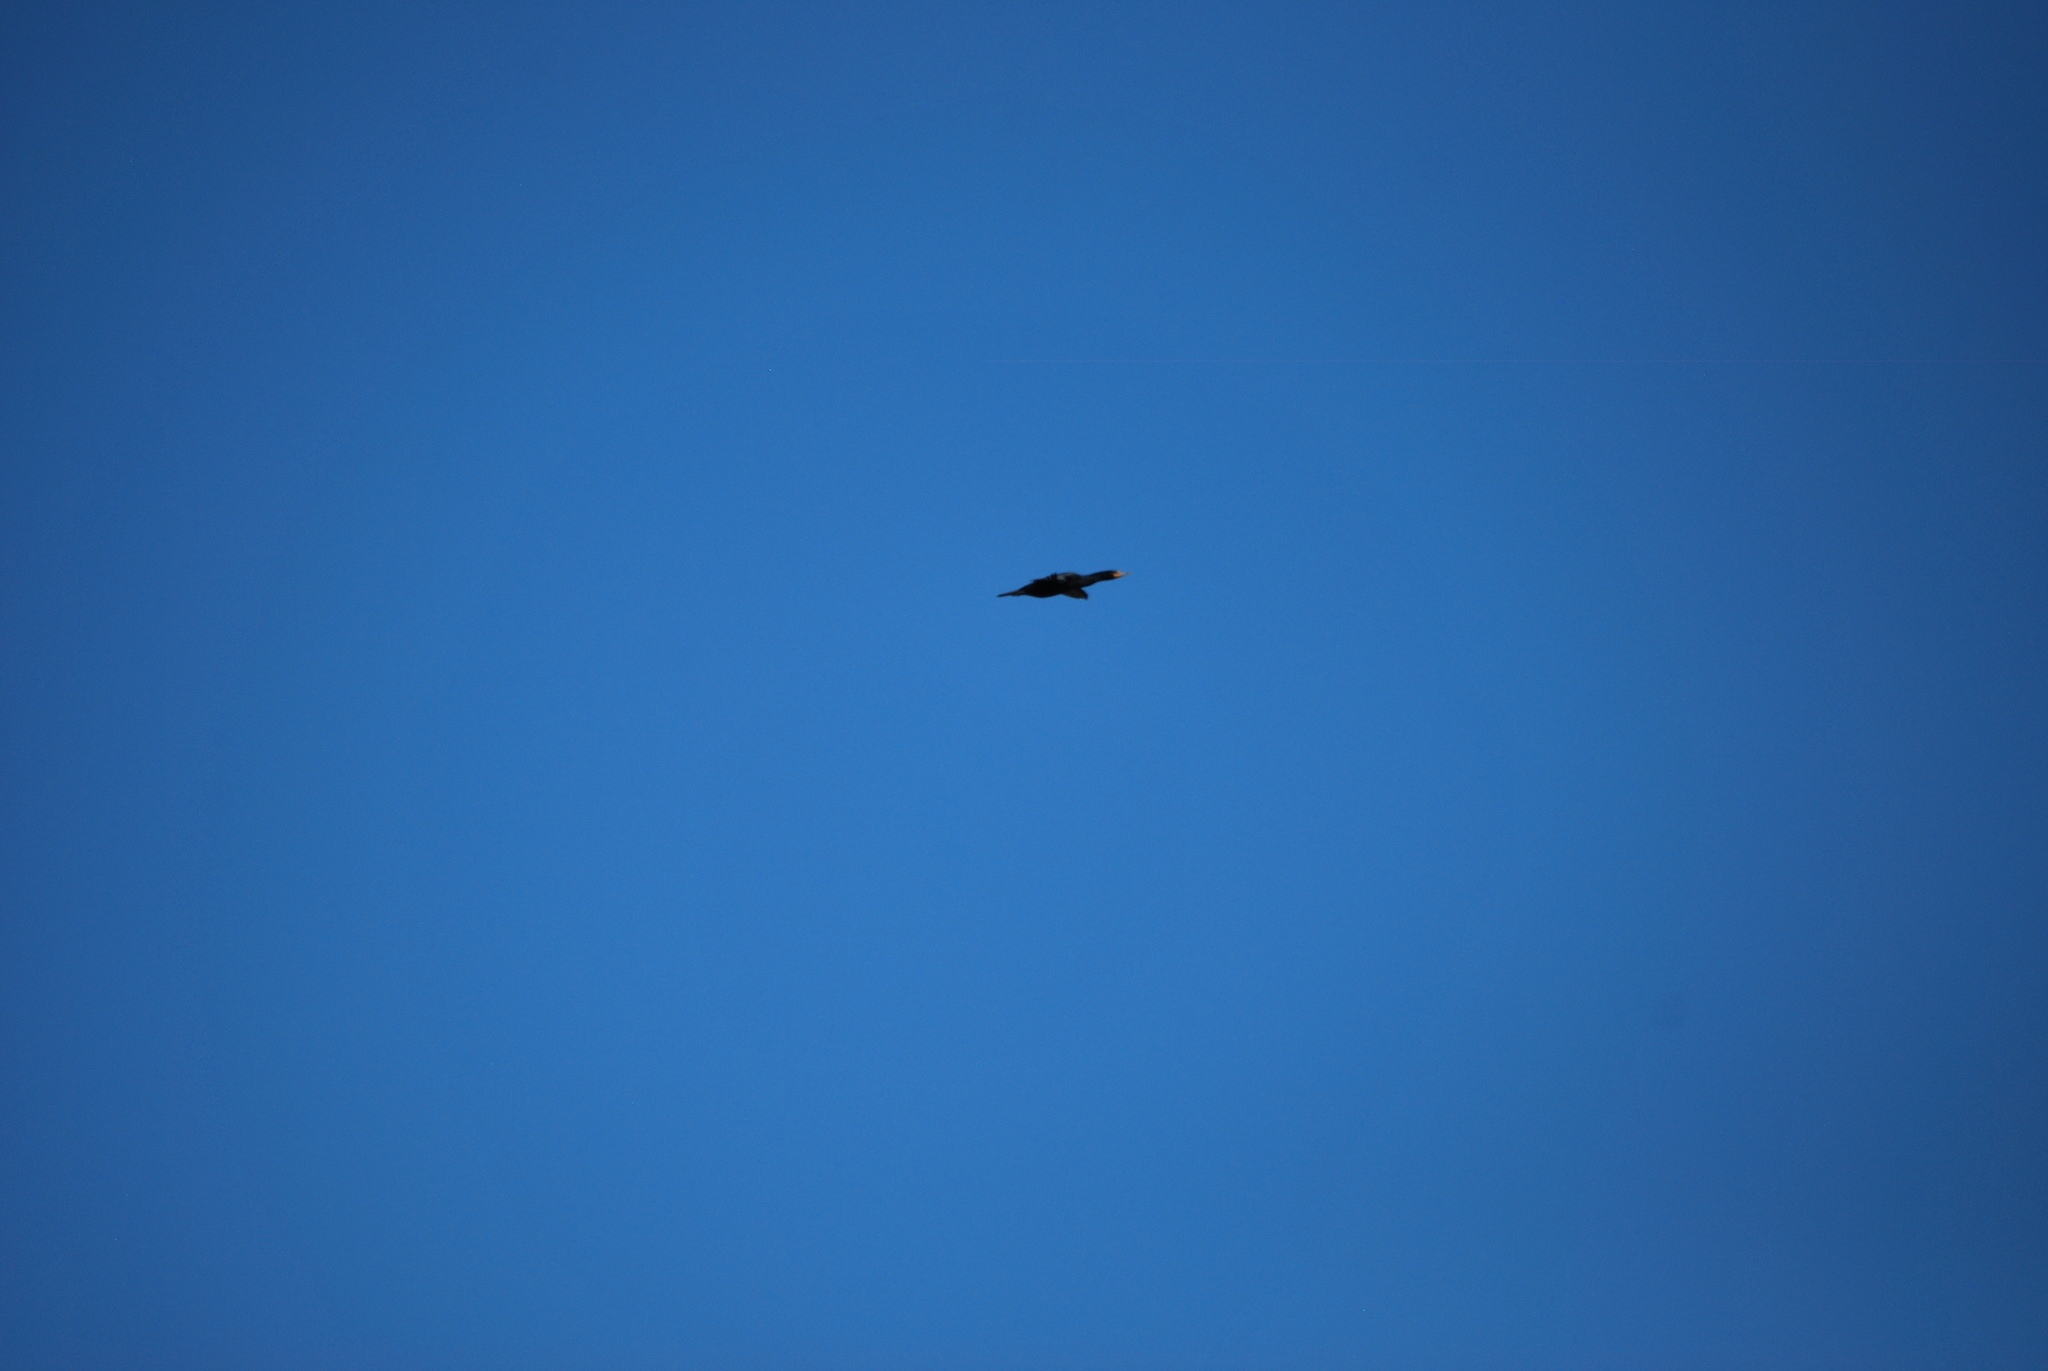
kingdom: Animalia
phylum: Chordata
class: Aves
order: Suliformes
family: Phalacrocoracidae
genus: Phalacrocorax
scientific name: Phalacrocorax auritus
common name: Double-crested cormorant
